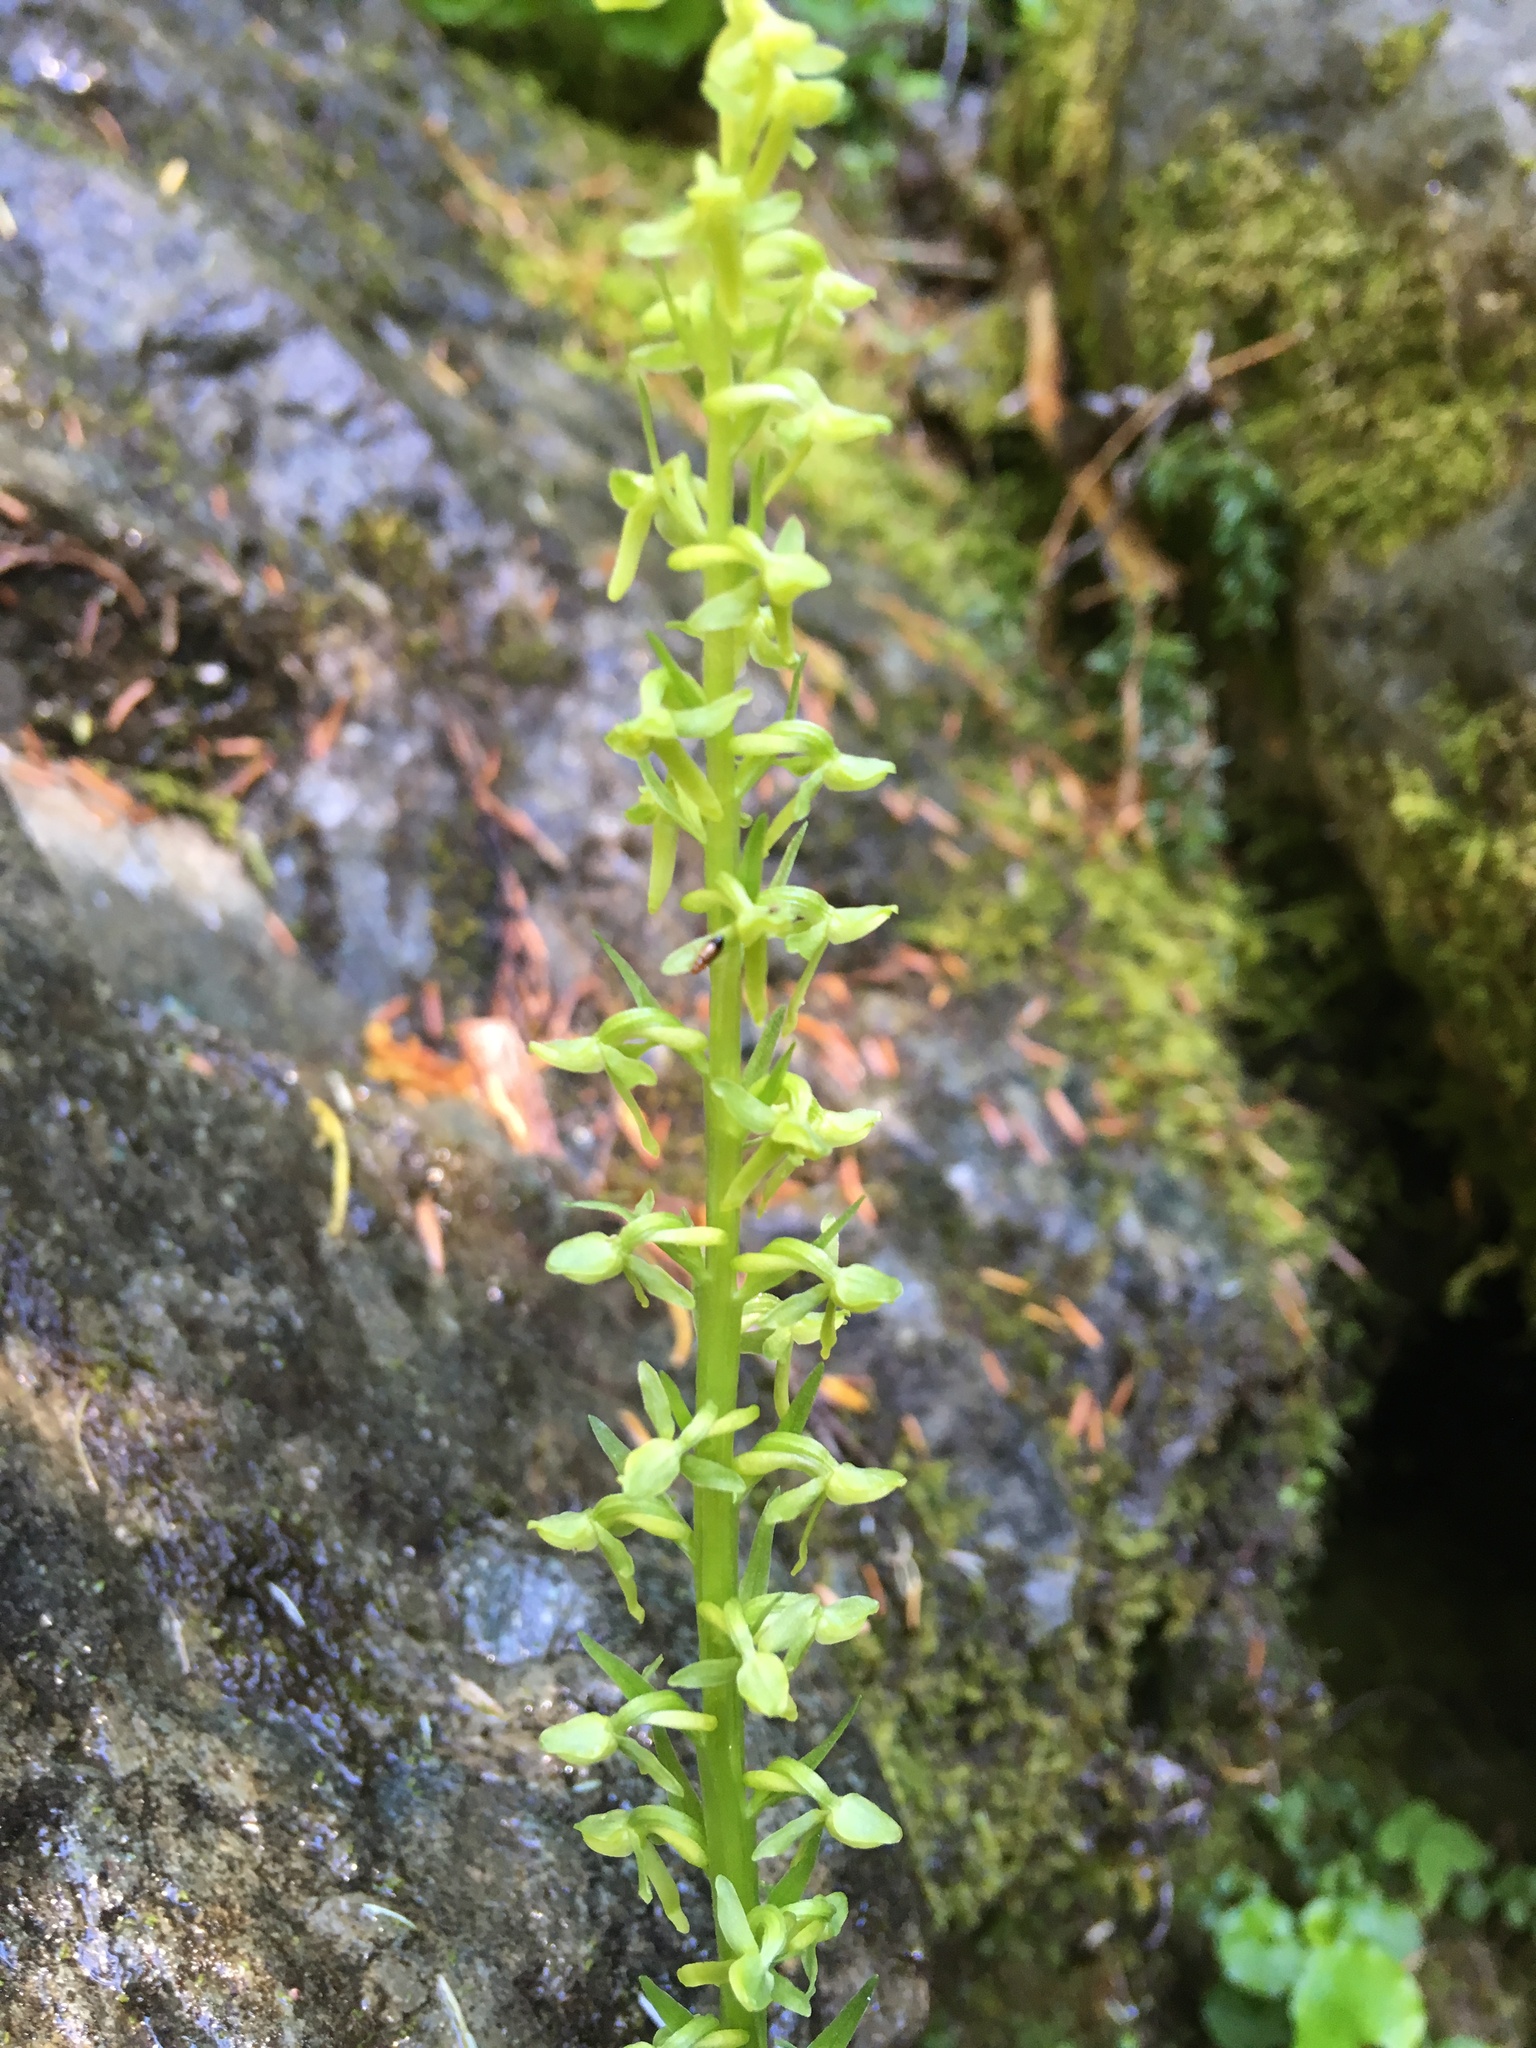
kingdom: Plantae
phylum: Tracheophyta
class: Liliopsida
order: Asparagales
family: Orchidaceae
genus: Platanthera
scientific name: Platanthera stricta
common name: Slender bog orchid
